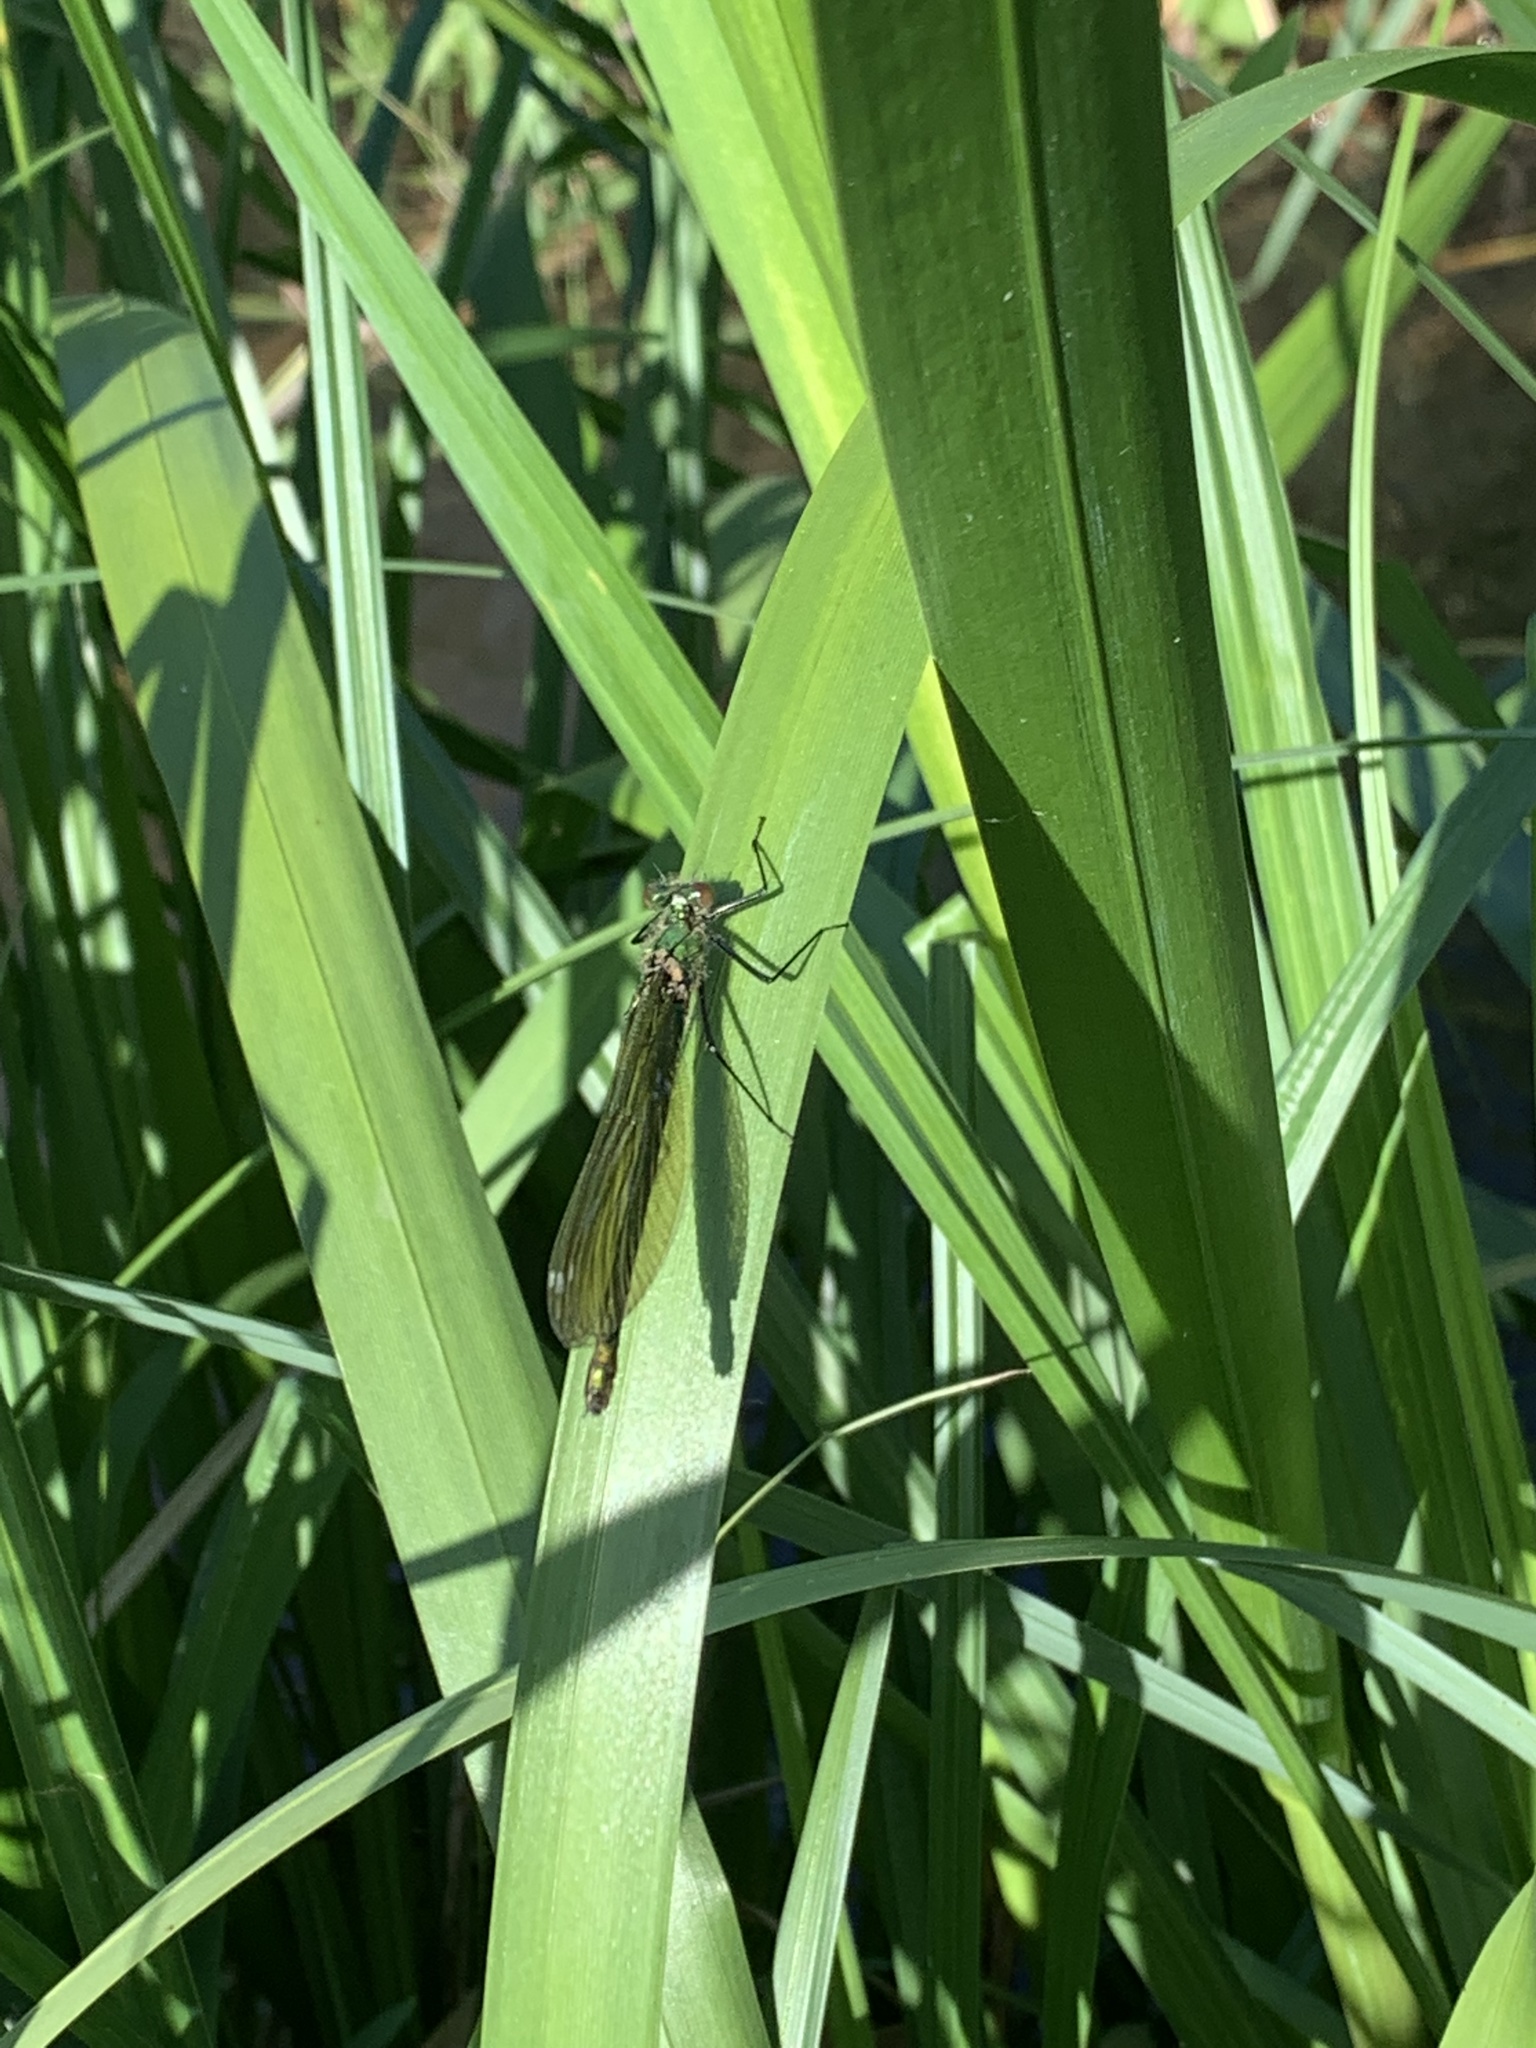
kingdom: Animalia
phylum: Arthropoda
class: Insecta
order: Odonata
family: Calopterygidae
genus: Calopteryx
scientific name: Calopteryx splendens
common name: Banded demoiselle
